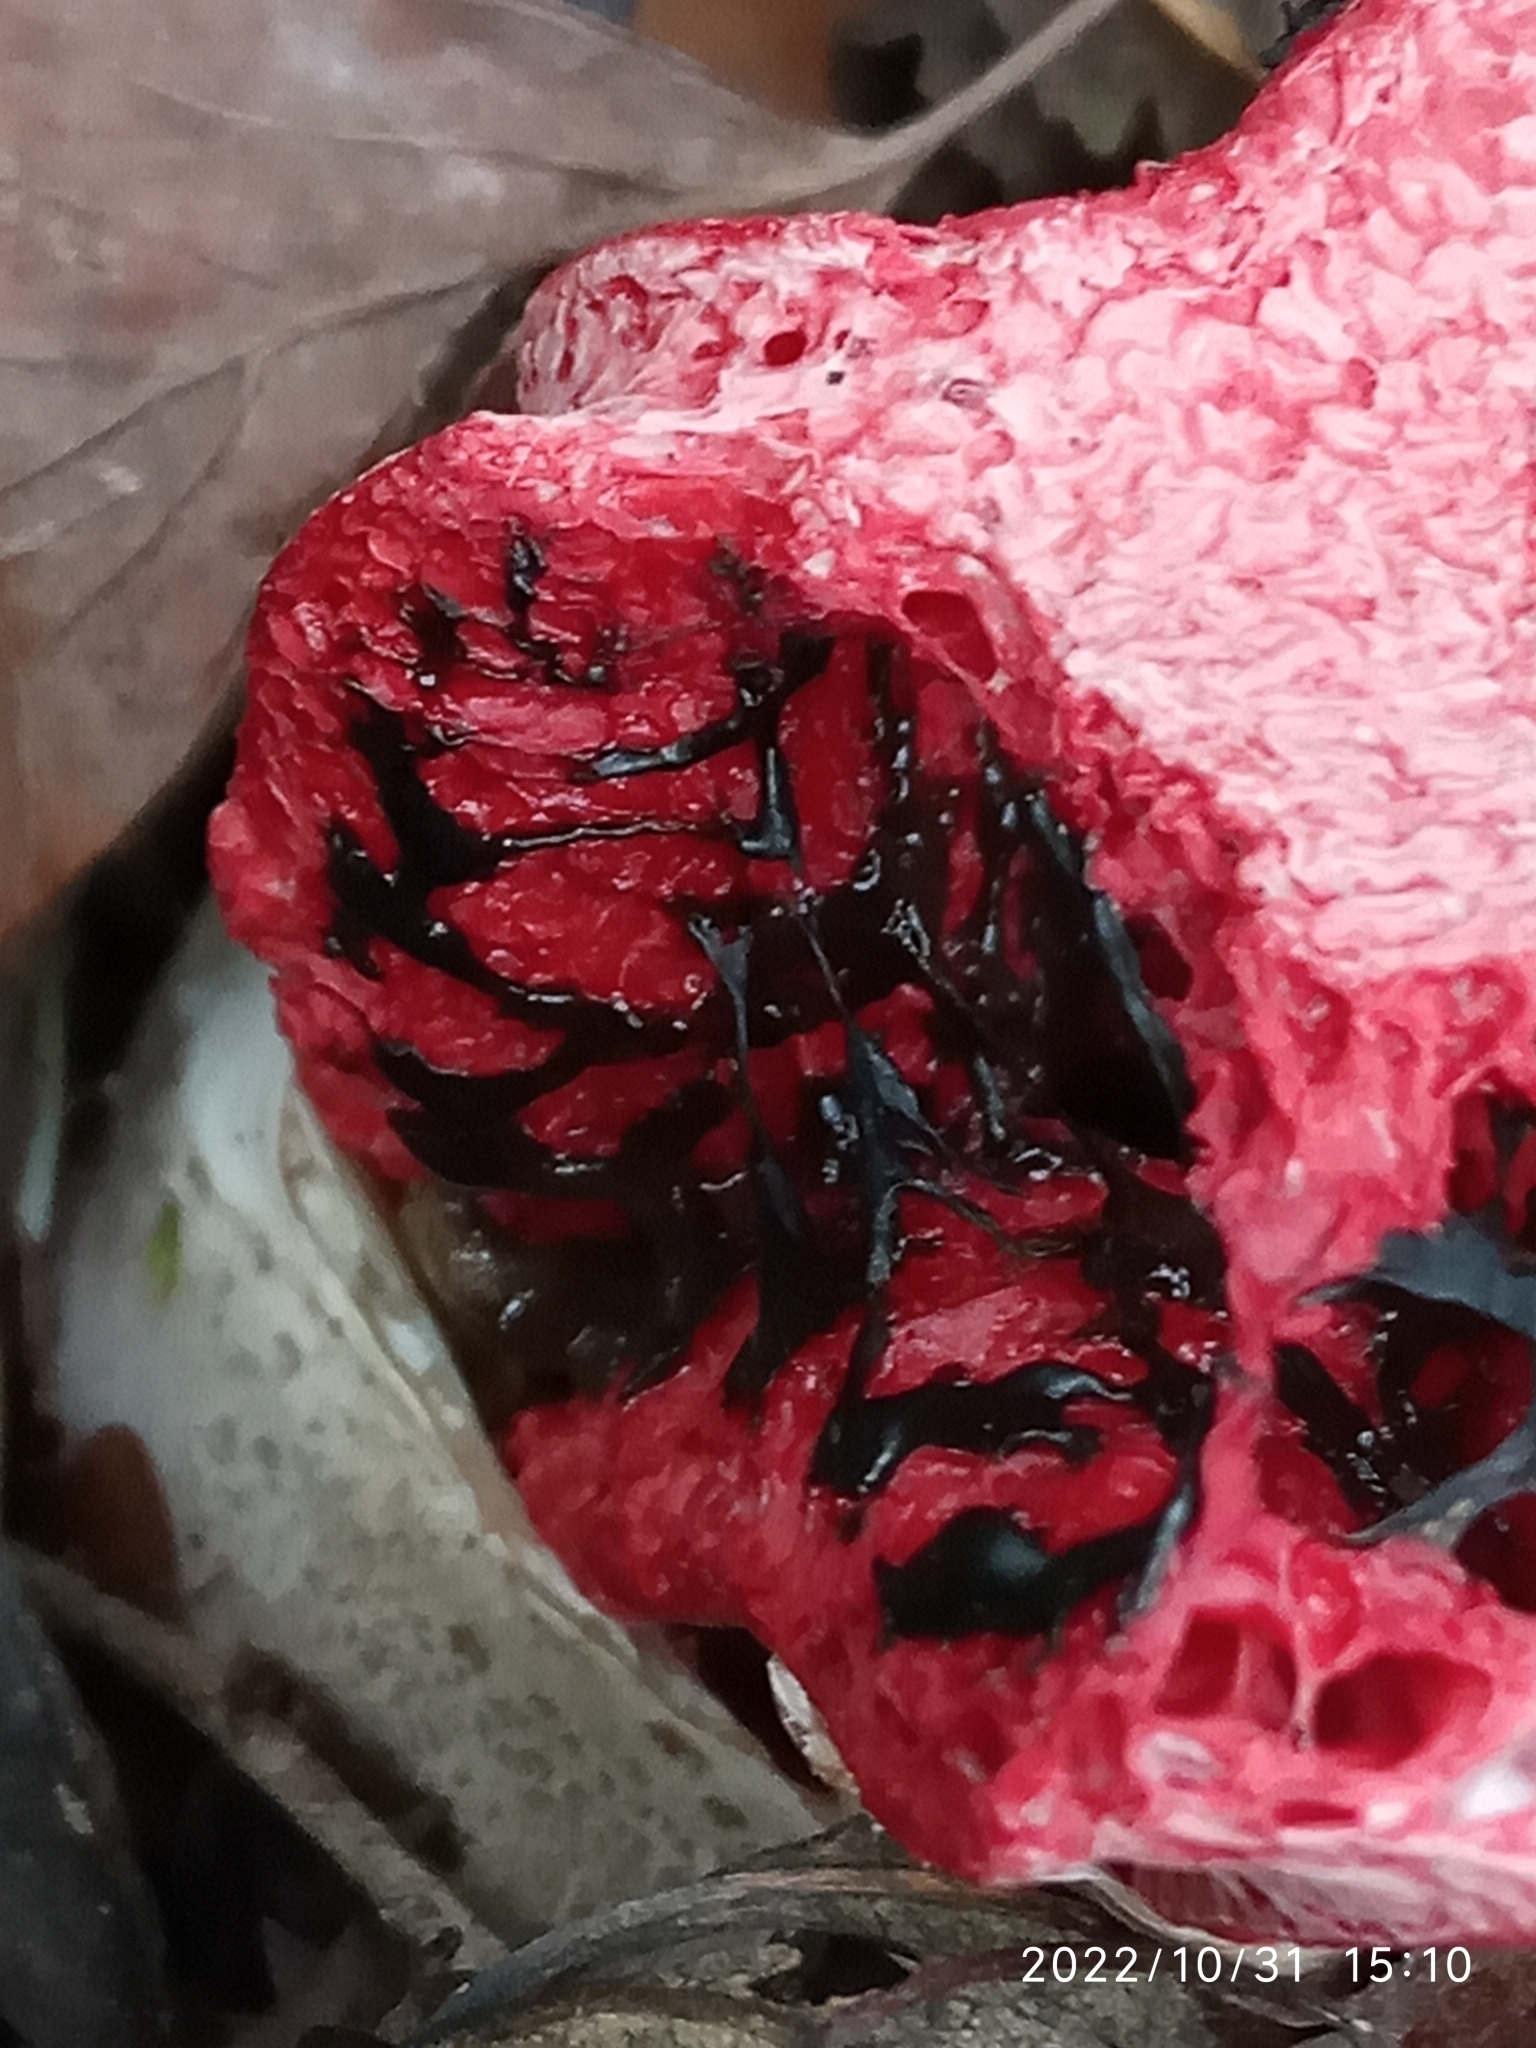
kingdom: Fungi
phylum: Basidiomycota
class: Agaricomycetes
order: Phallales
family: Phallaceae
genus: Clathrus
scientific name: Clathrus archeri
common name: Devil's fingers
